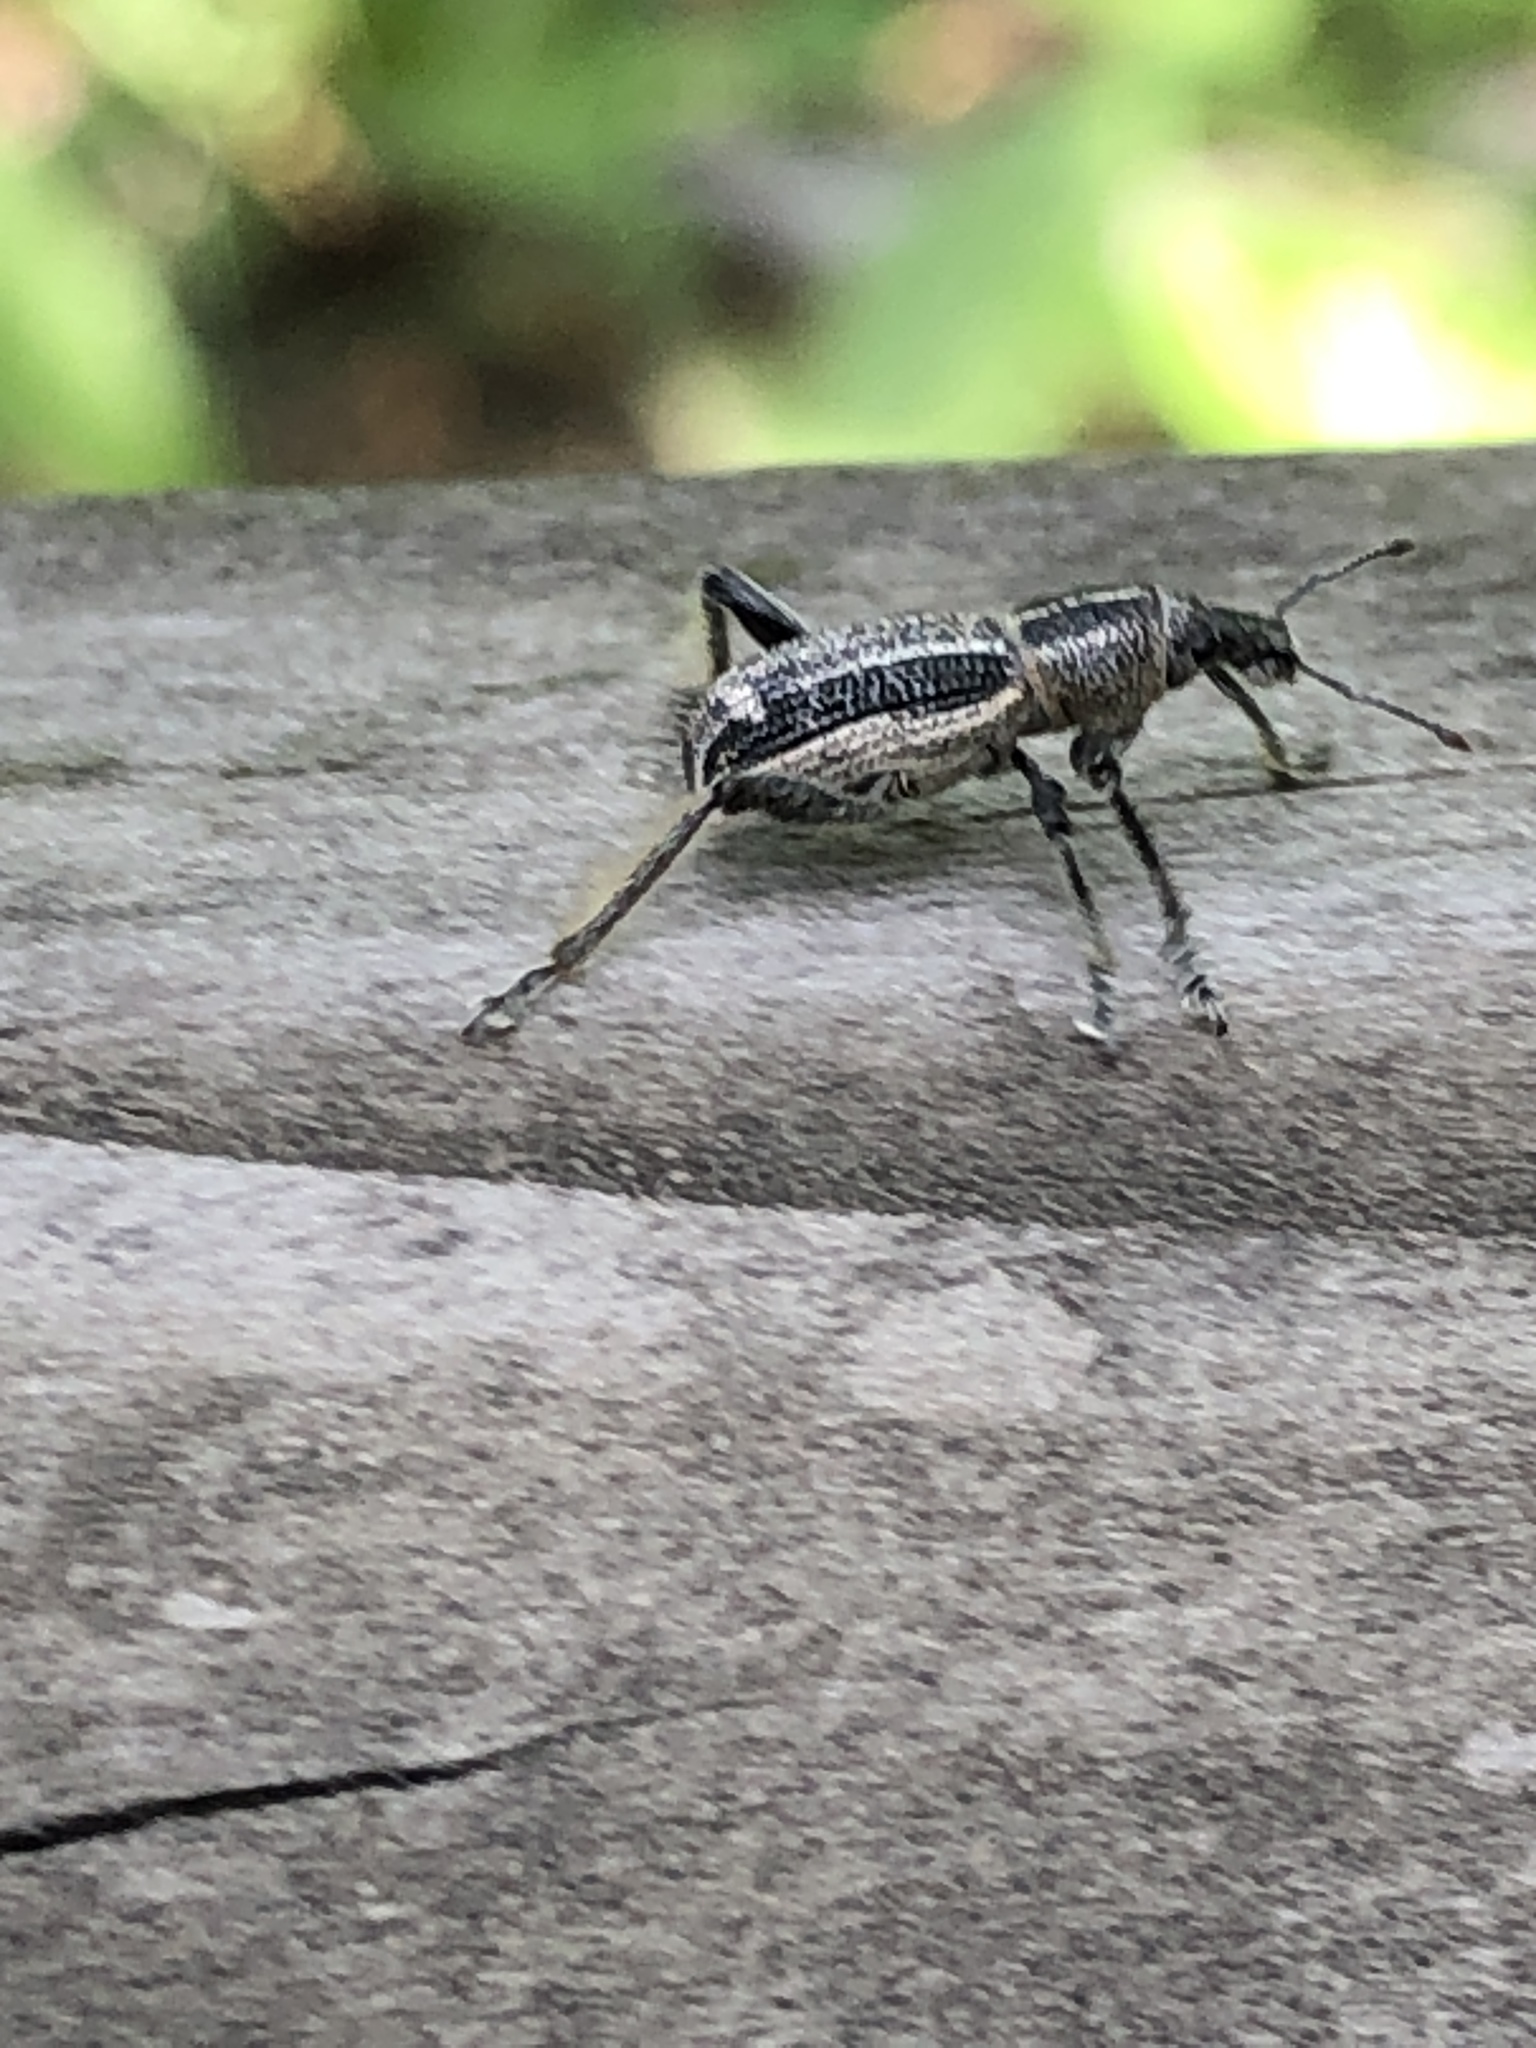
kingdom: Animalia
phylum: Arthropoda
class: Insecta
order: Coleoptera
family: Curculionidae
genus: Enaptorhinus
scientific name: Enaptorhinus granulatus
